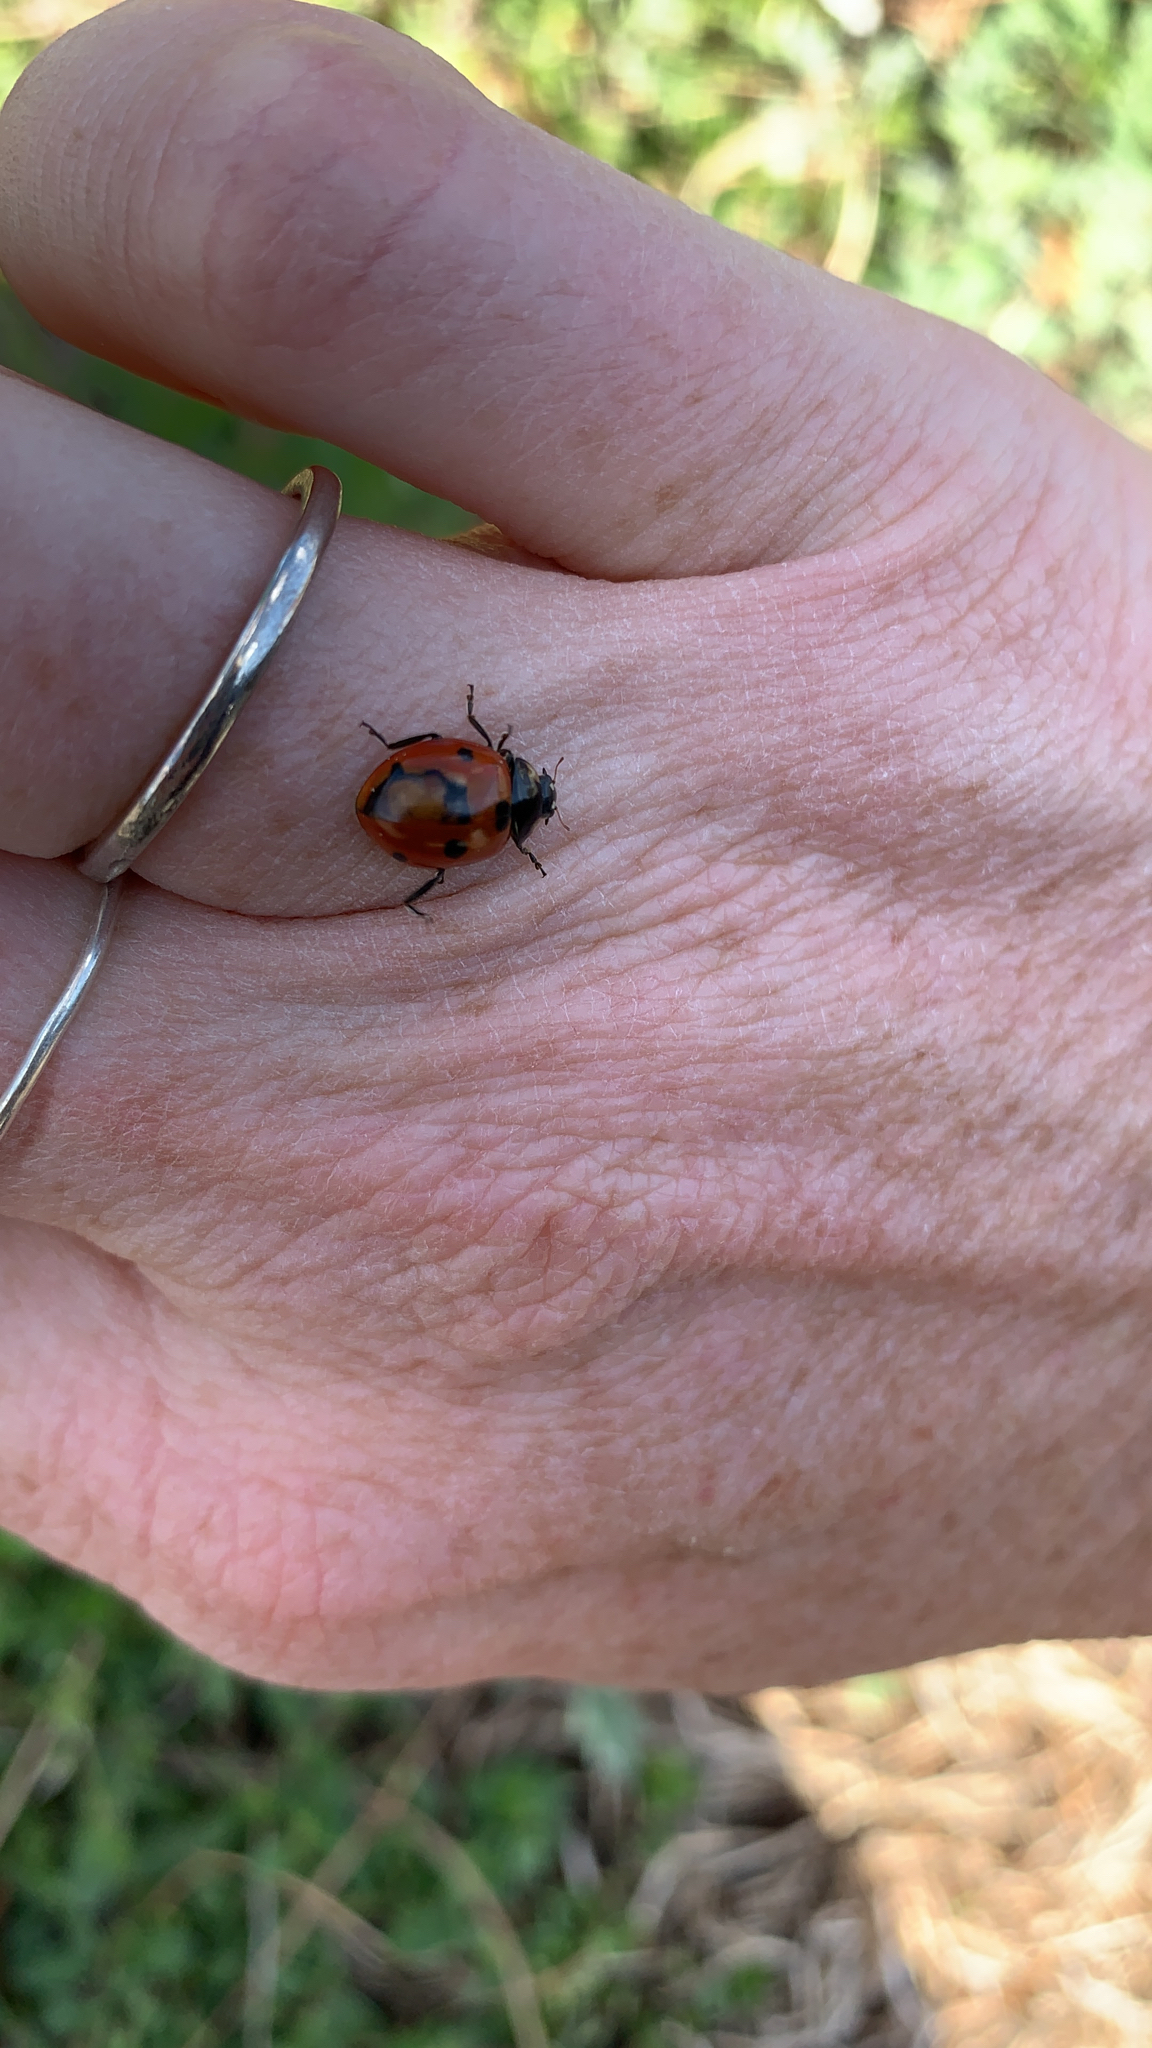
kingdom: Animalia
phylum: Arthropoda
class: Insecta
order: Coleoptera
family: Coccinellidae
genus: Coccinella
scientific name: Coccinella septempunctata
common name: Sevenspotted lady beetle
